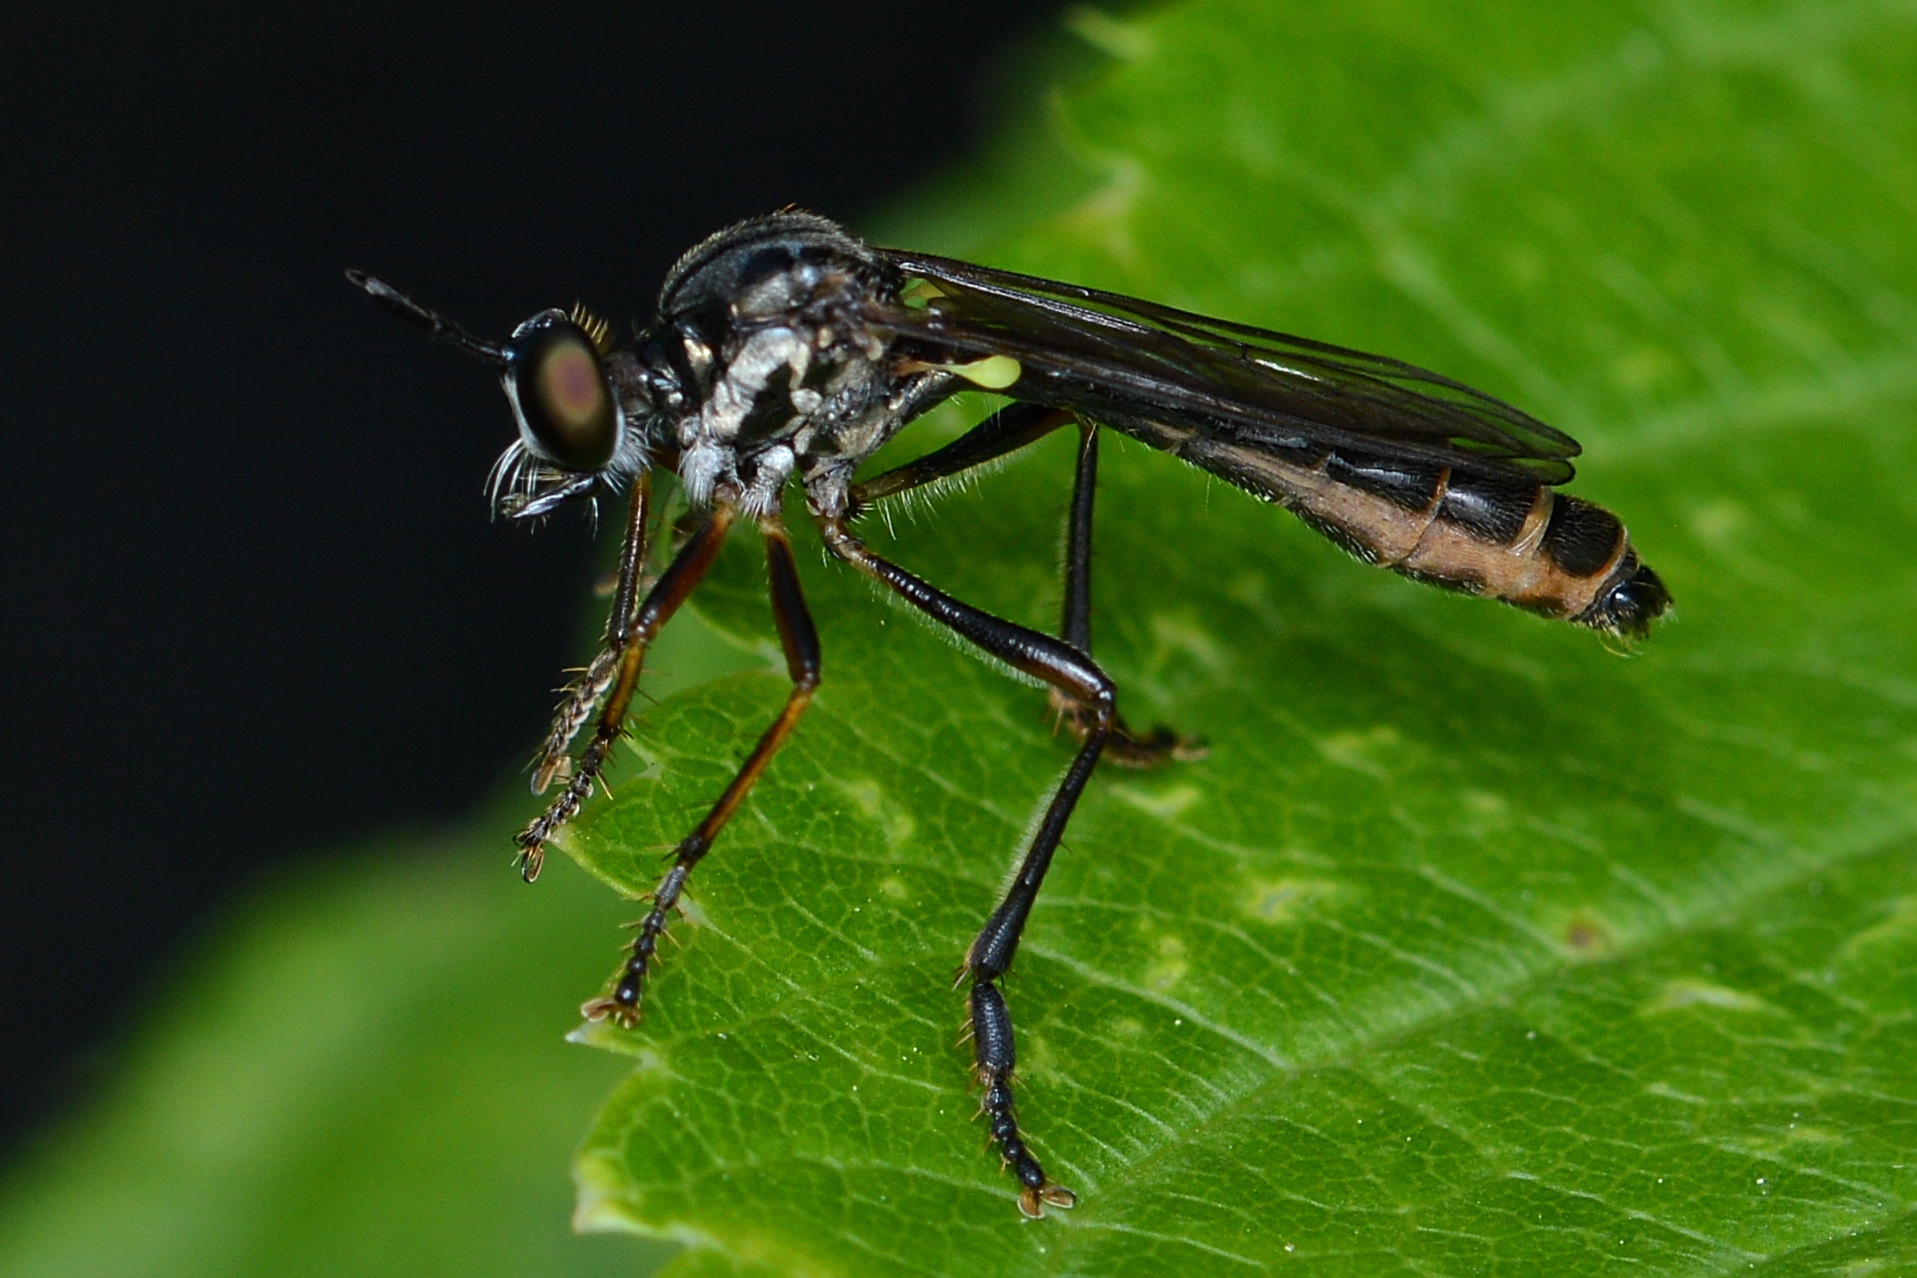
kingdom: Animalia
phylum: Arthropoda
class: Insecta
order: Diptera
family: Asilidae
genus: Dioctria
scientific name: Dioctria hyalipennis
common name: Stripe-legged robberfly
